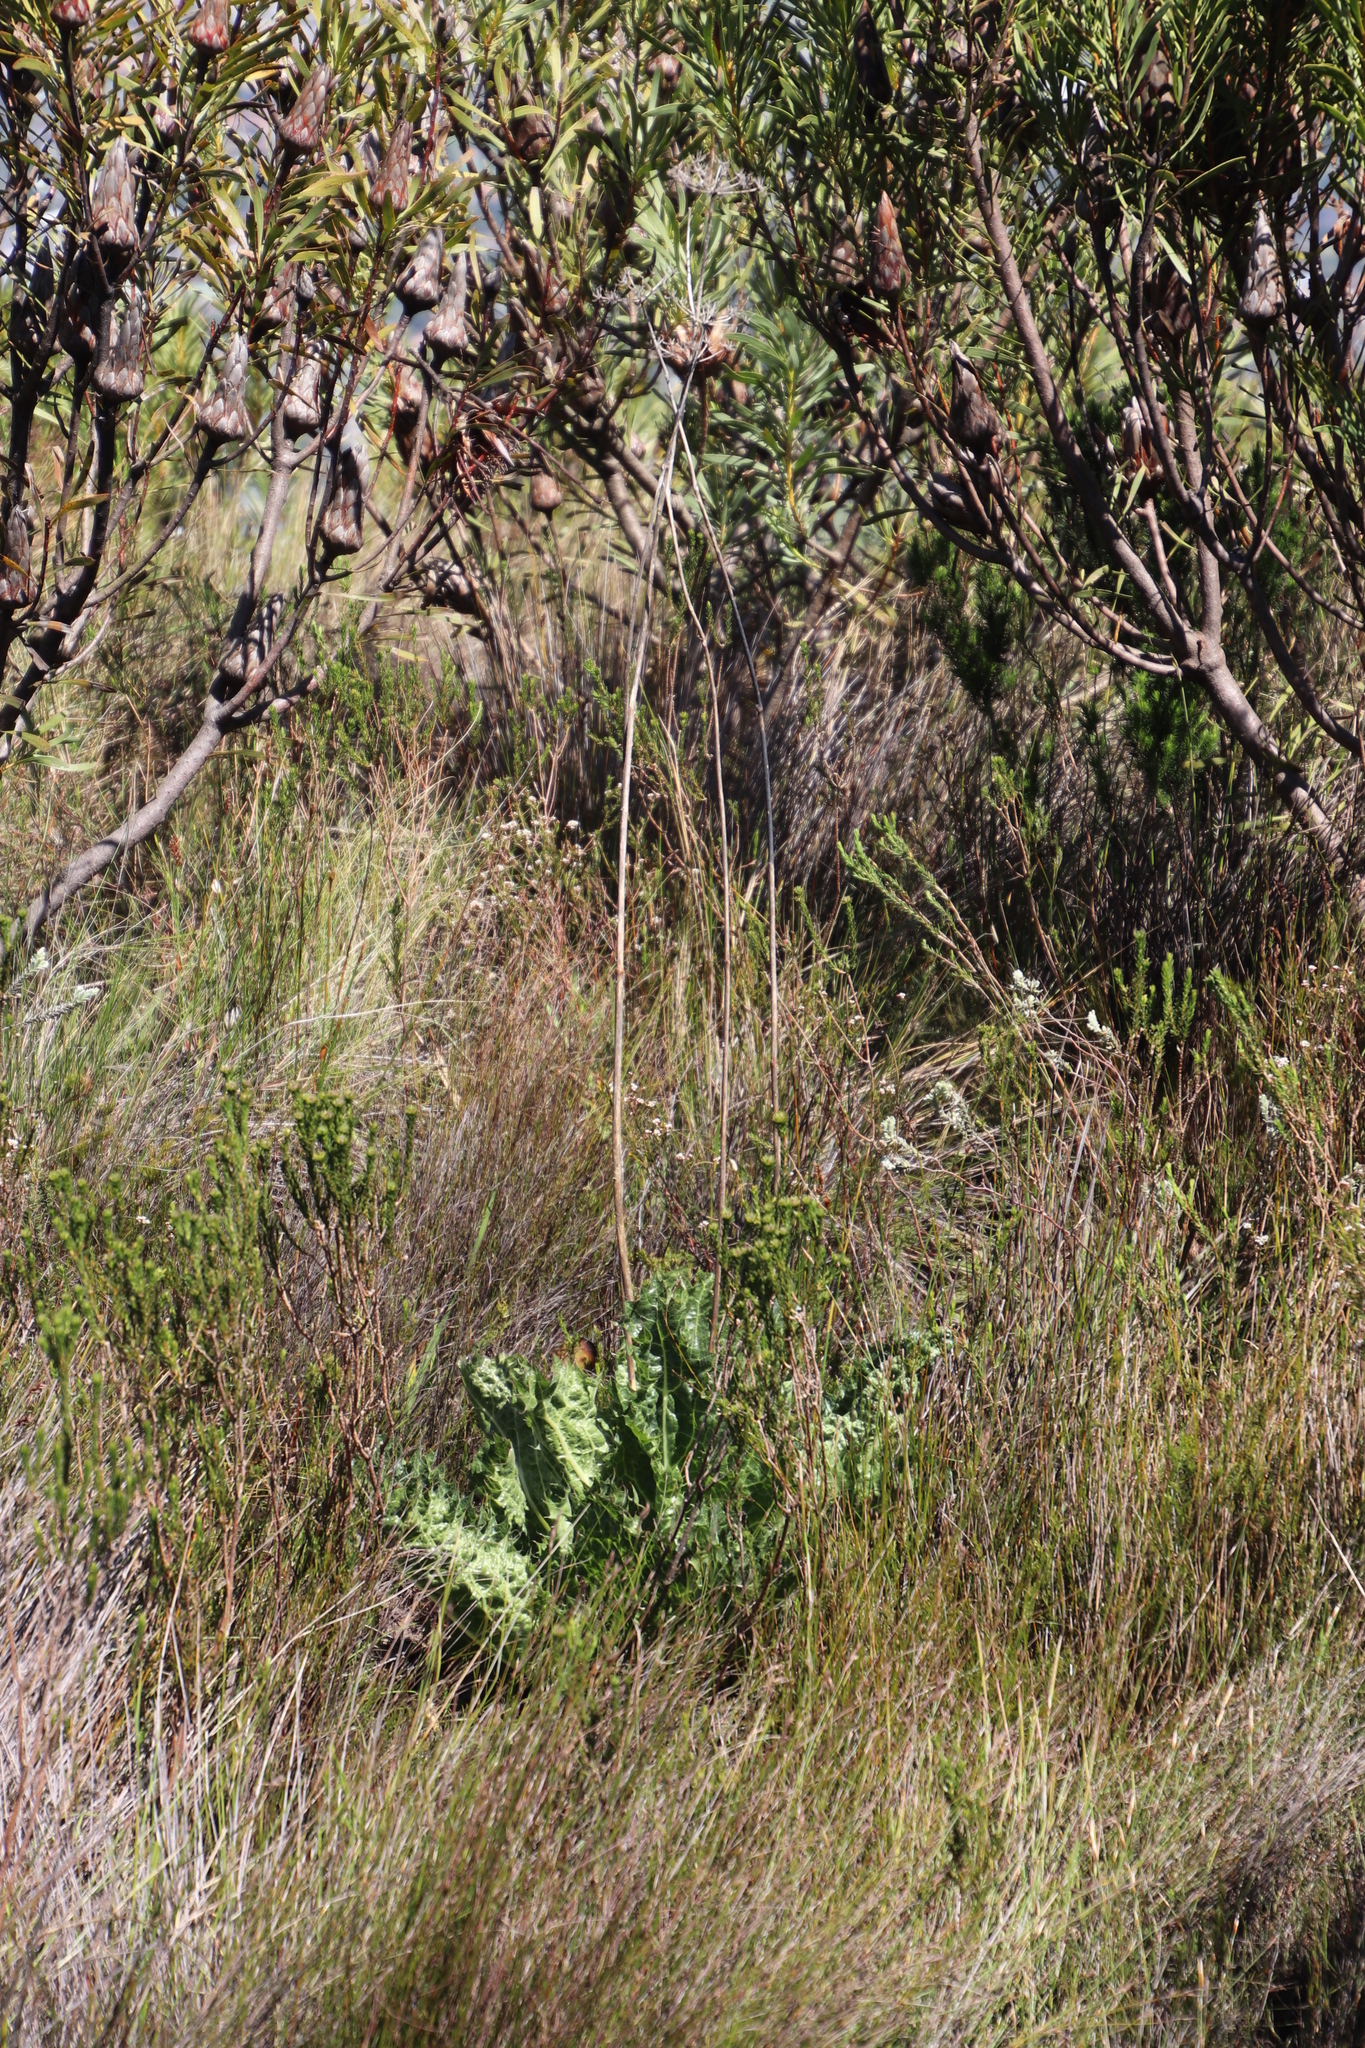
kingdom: Plantae
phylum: Tracheophyta
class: Magnoliopsida
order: Apiales
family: Apiaceae
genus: Lichtensteinia
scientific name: Lichtensteinia lacera
